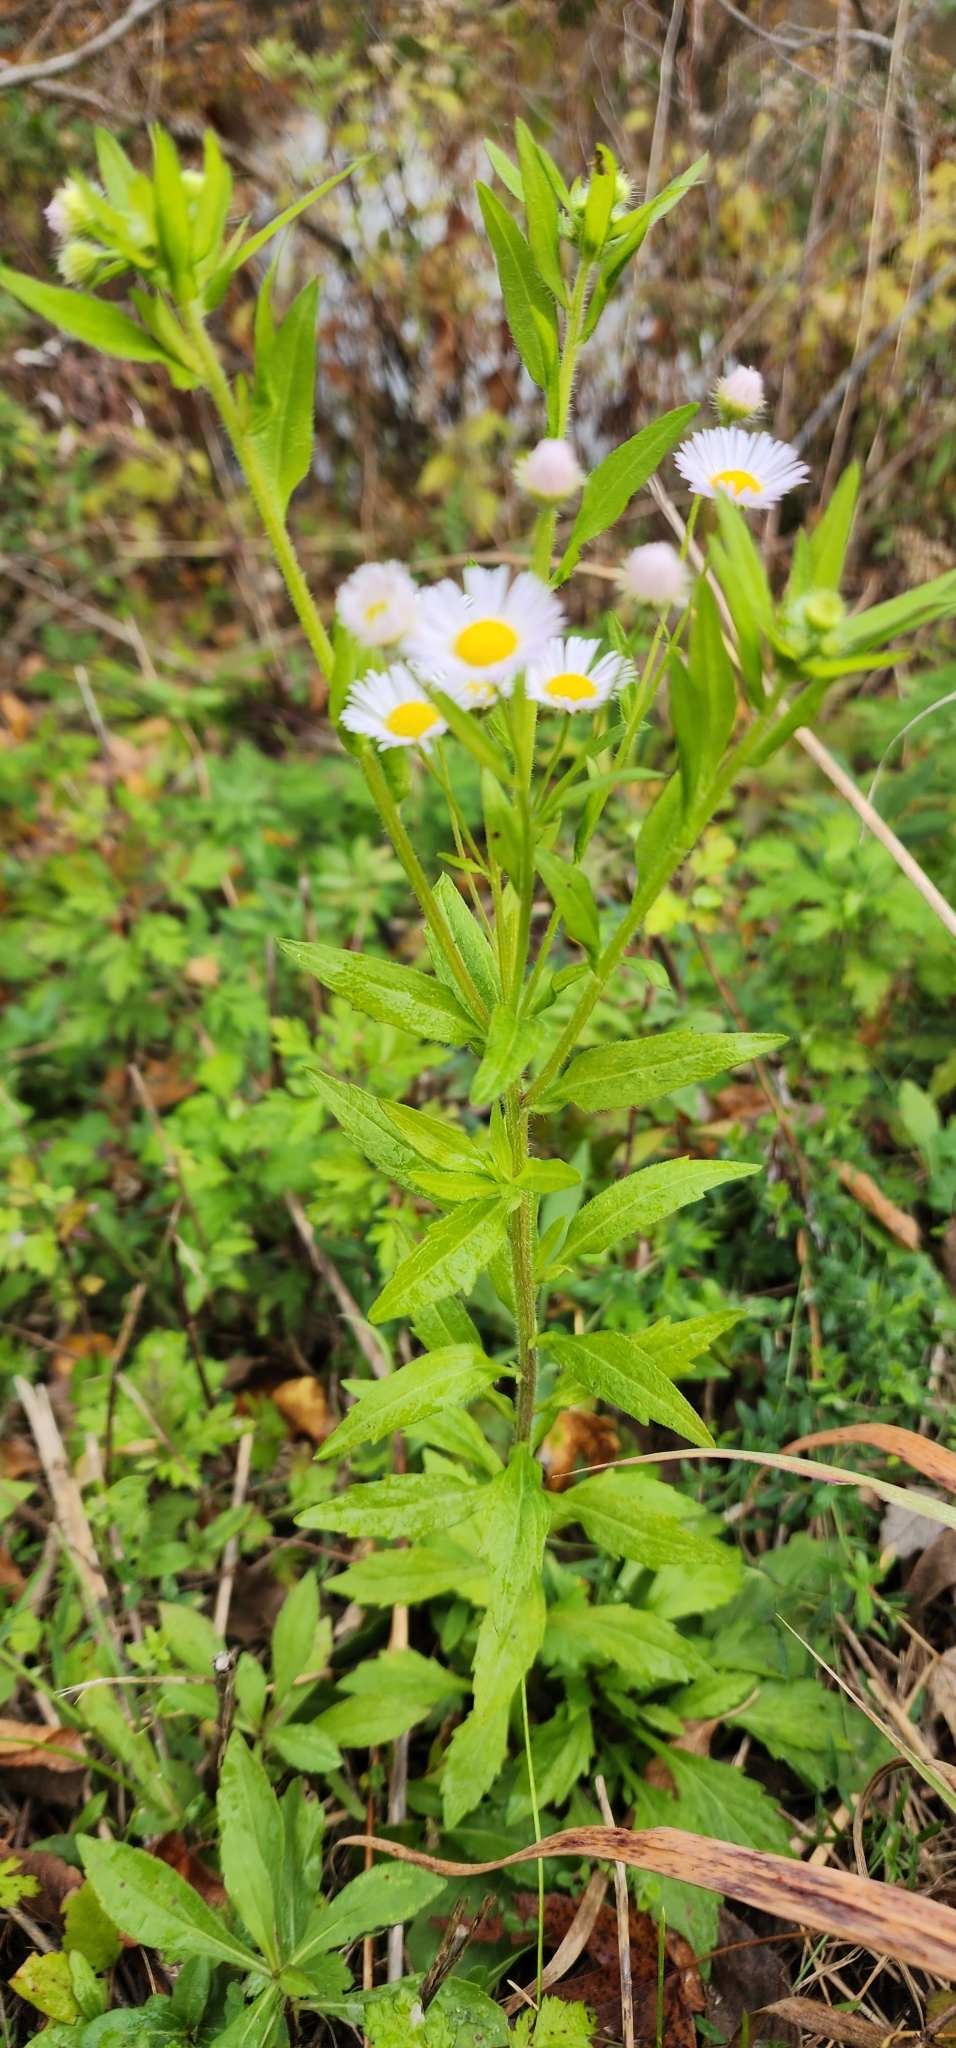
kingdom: Plantae
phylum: Tracheophyta
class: Magnoliopsida
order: Asterales
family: Asteraceae
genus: Erigeron
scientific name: Erigeron annuus
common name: Tall fleabane
